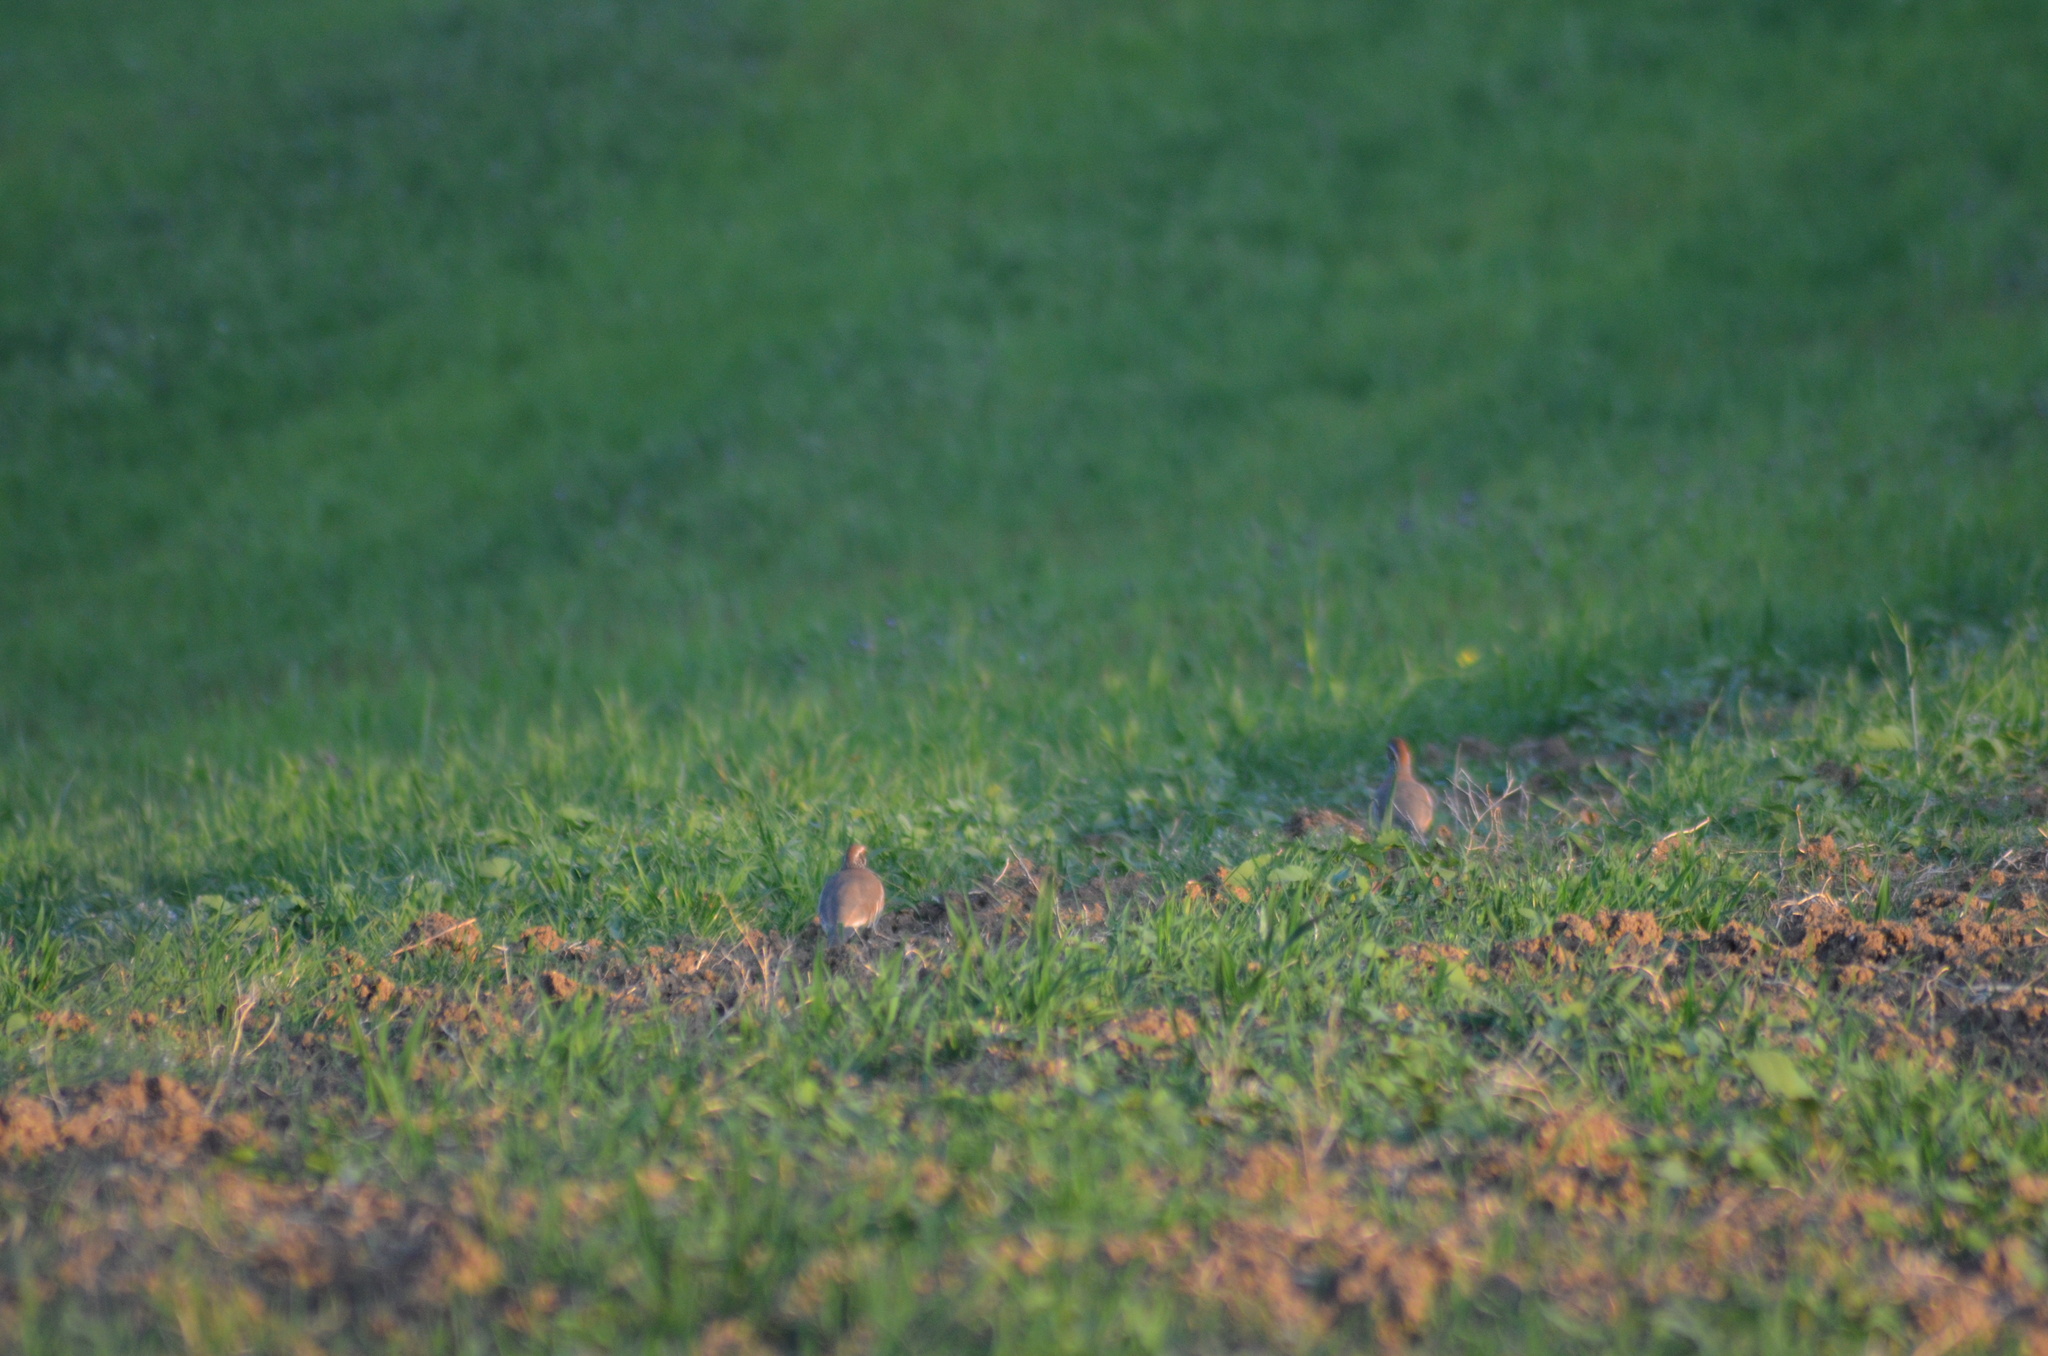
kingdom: Animalia
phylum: Chordata
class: Aves
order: Galliformes
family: Phasianidae
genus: Alectoris
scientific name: Alectoris rufa
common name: Red-legged partridge
